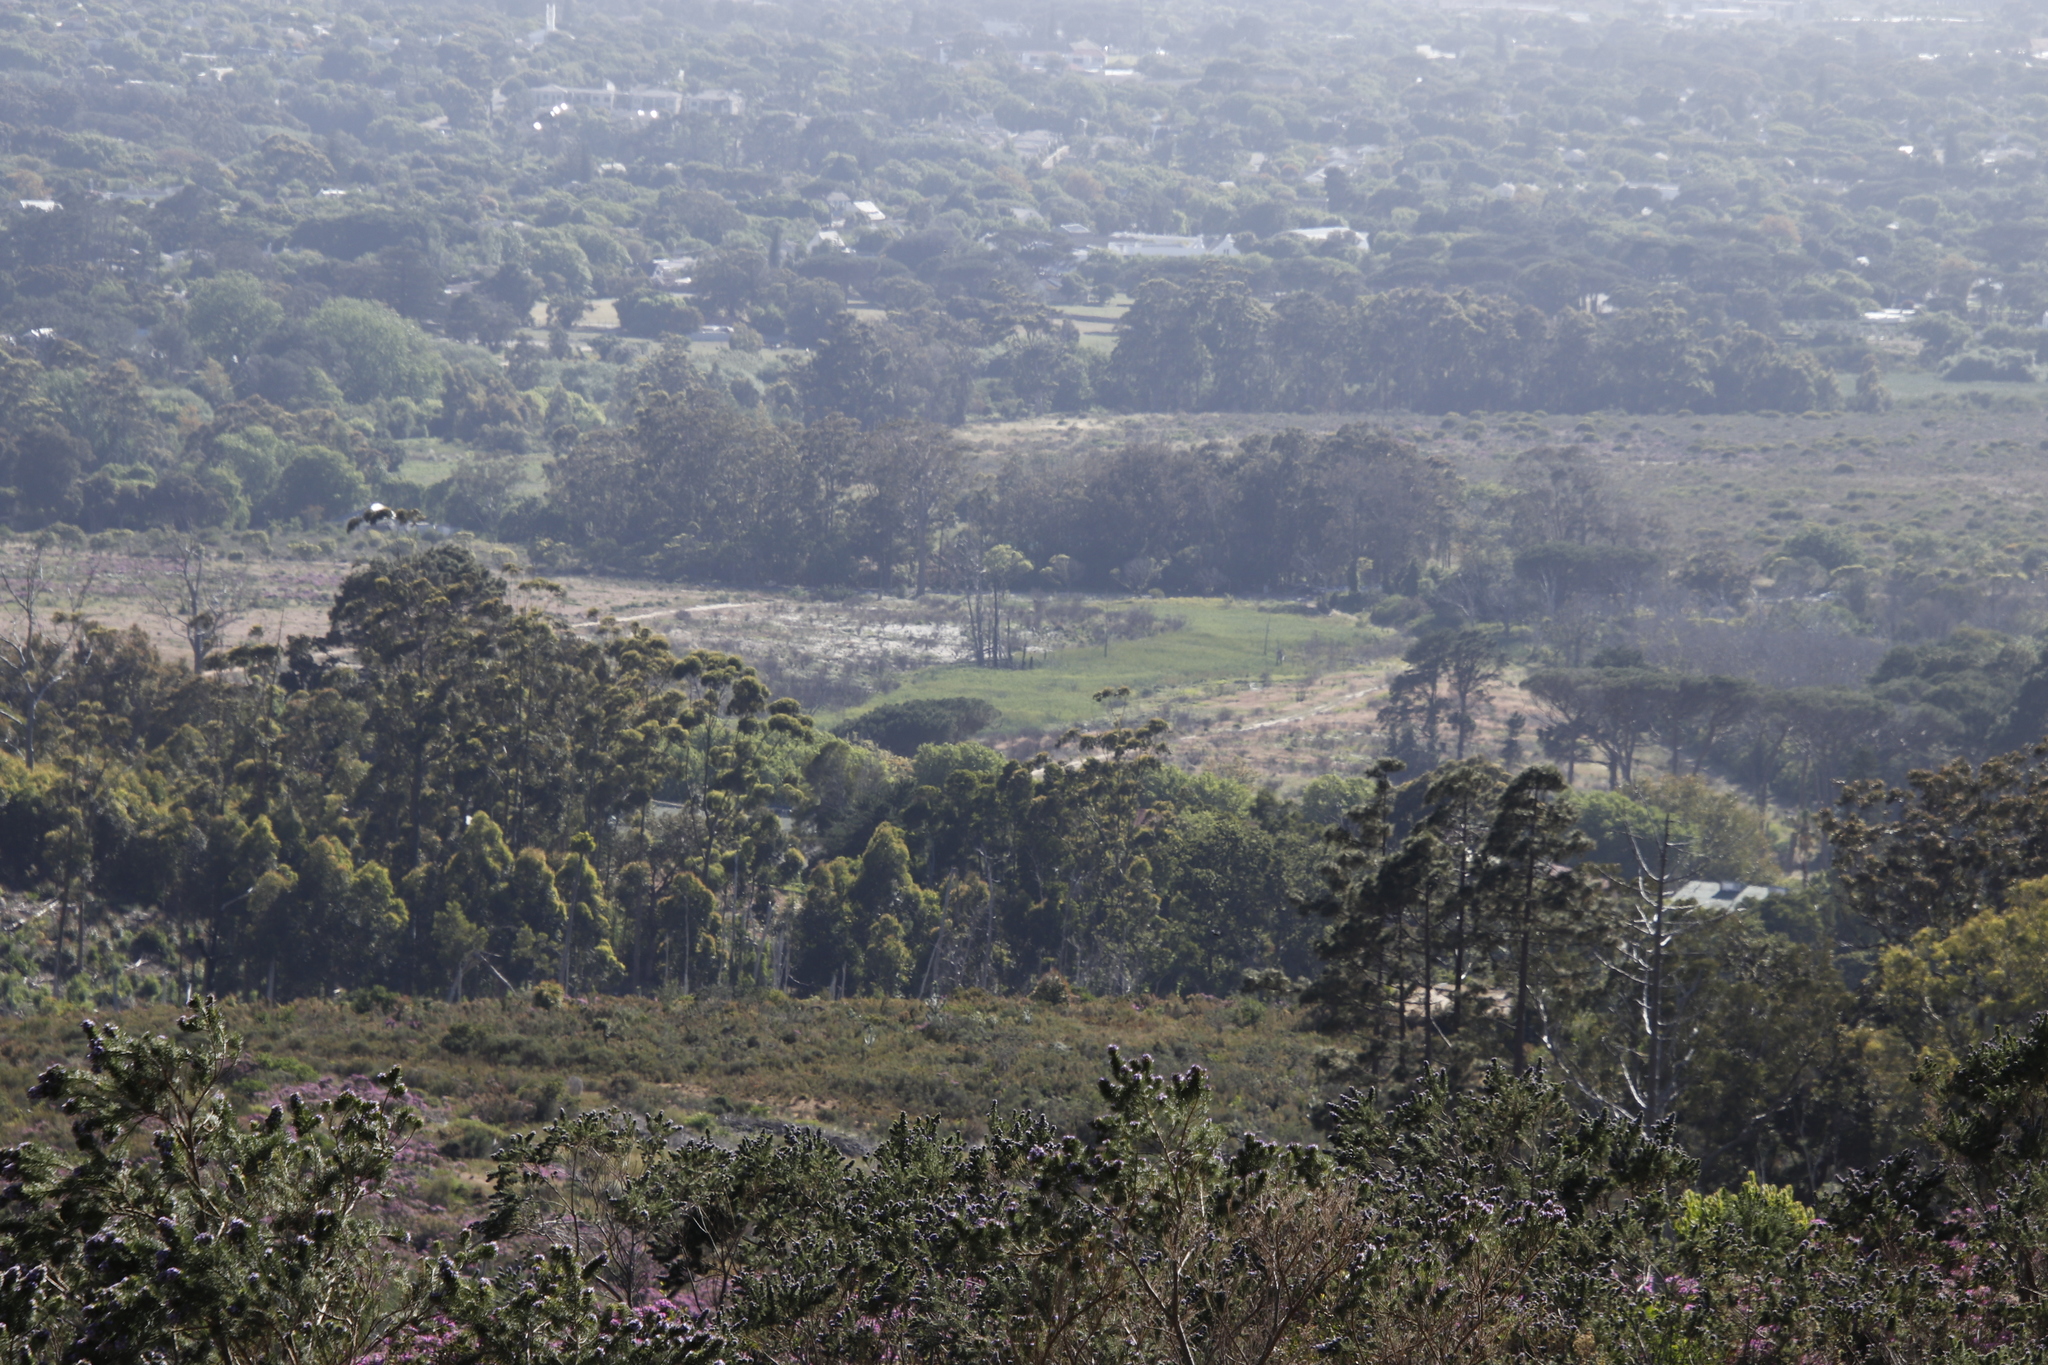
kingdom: Plantae
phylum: Tracheophyta
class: Magnoliopsida
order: Fabales
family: Fabaceae
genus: Psoralea
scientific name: Psoralea pinnata
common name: African scurfpea
